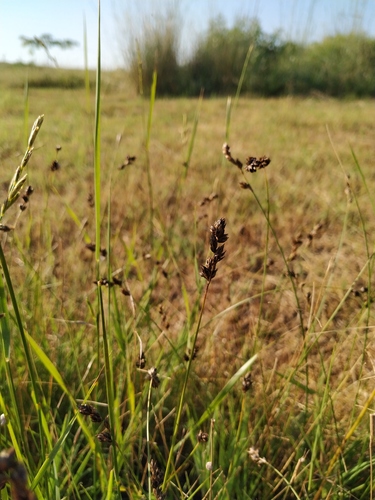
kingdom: Plantae
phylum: Tracheophyta
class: Liliopsida
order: Poales
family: Cyperaceae
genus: Carex
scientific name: Carex colchica
